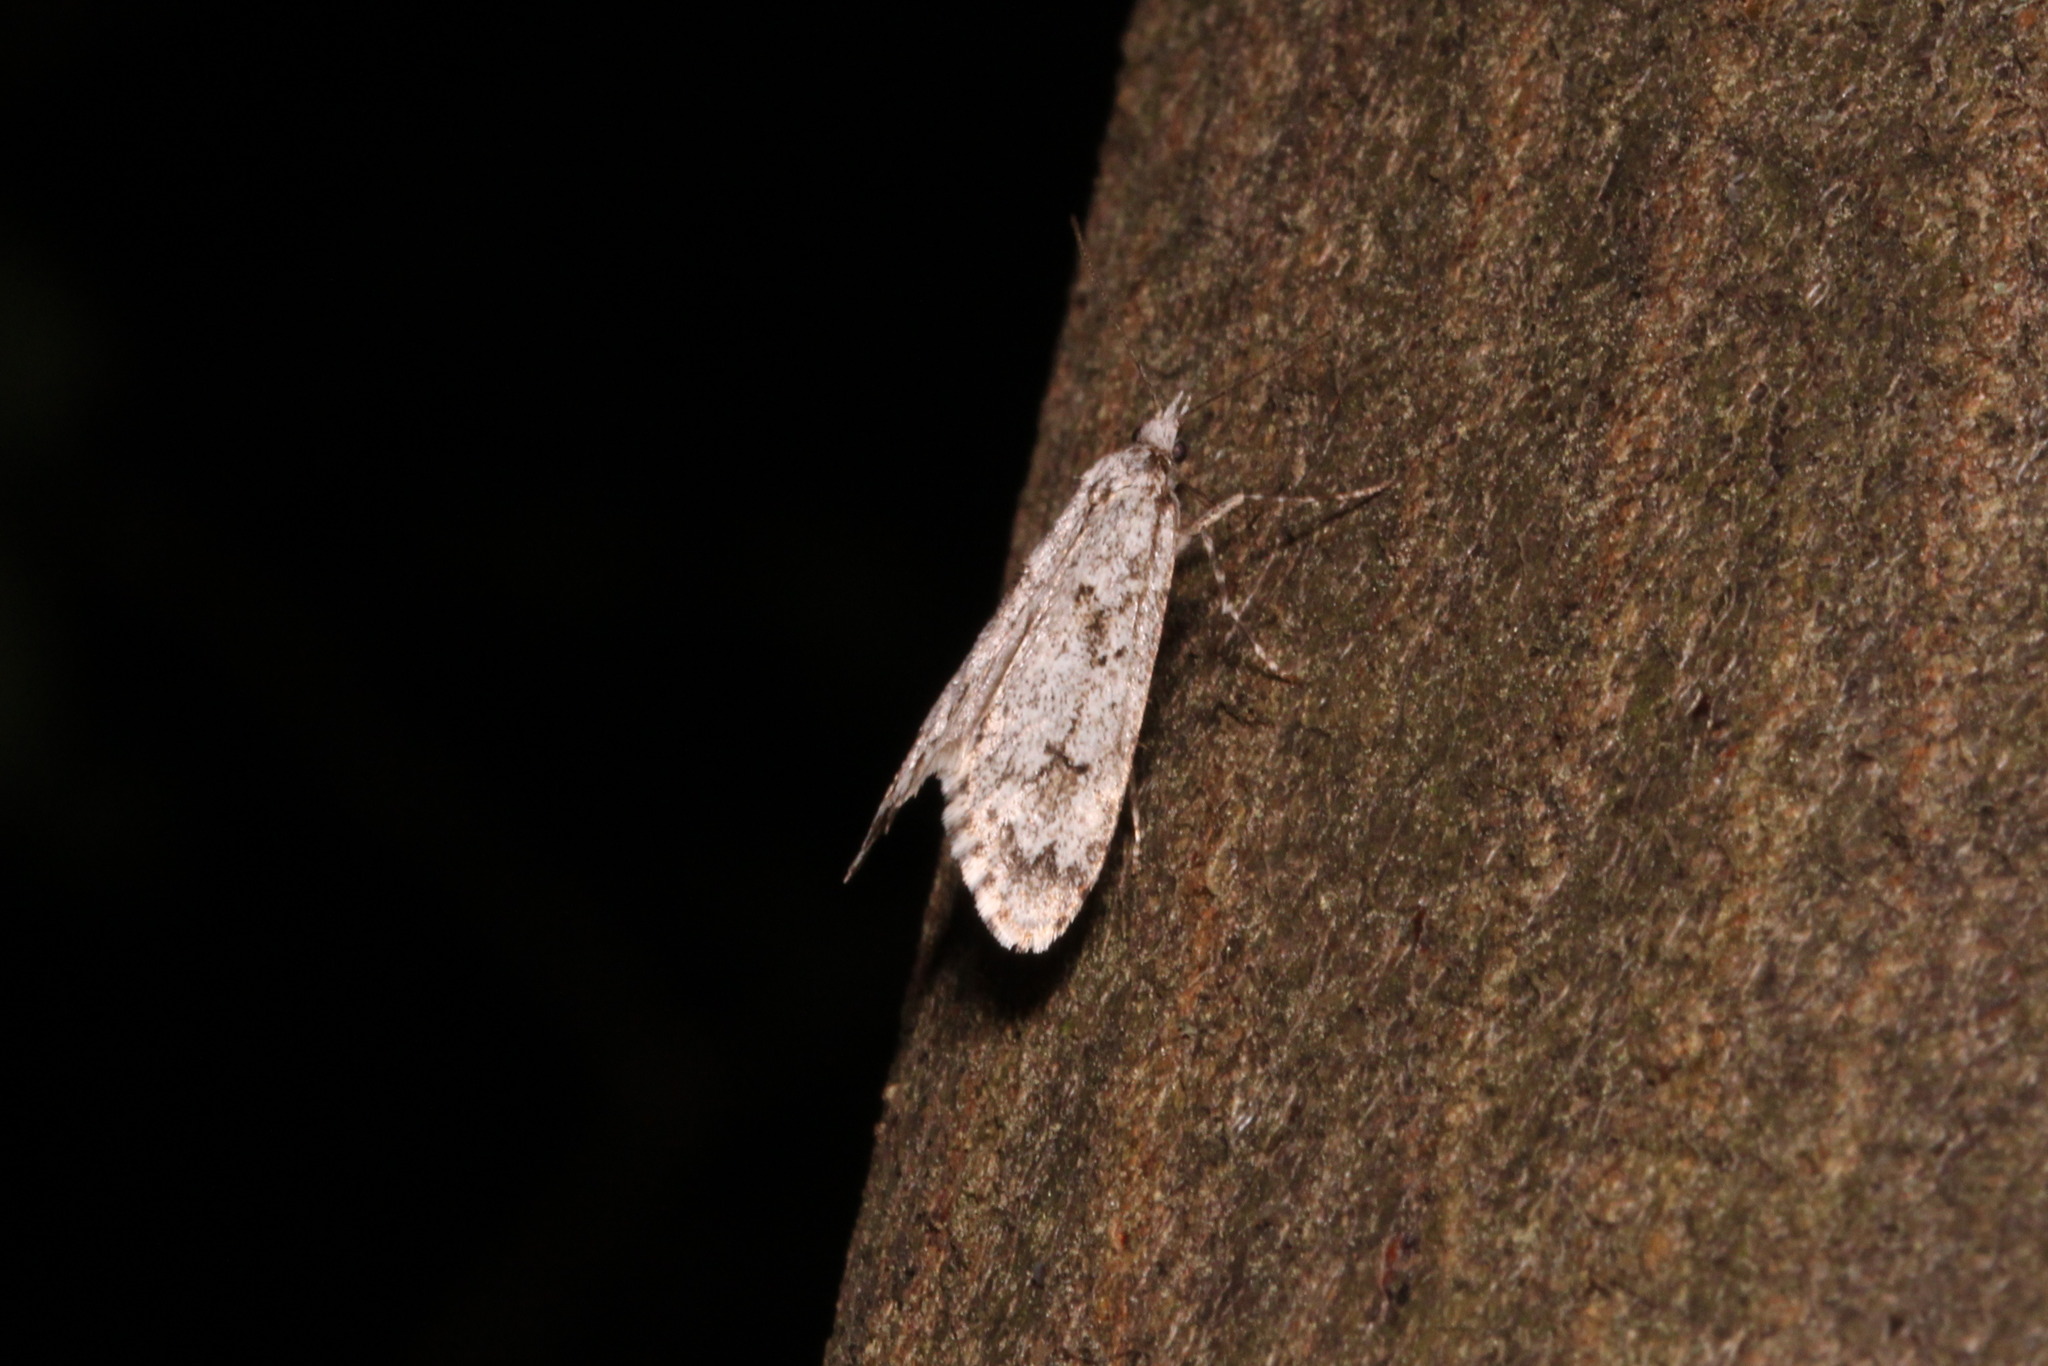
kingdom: Animalia
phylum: Arthropoda
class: Insecta
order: Lepidoptera
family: Lypusidae
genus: Diurnea
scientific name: Diurnea fagella
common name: March tubic
